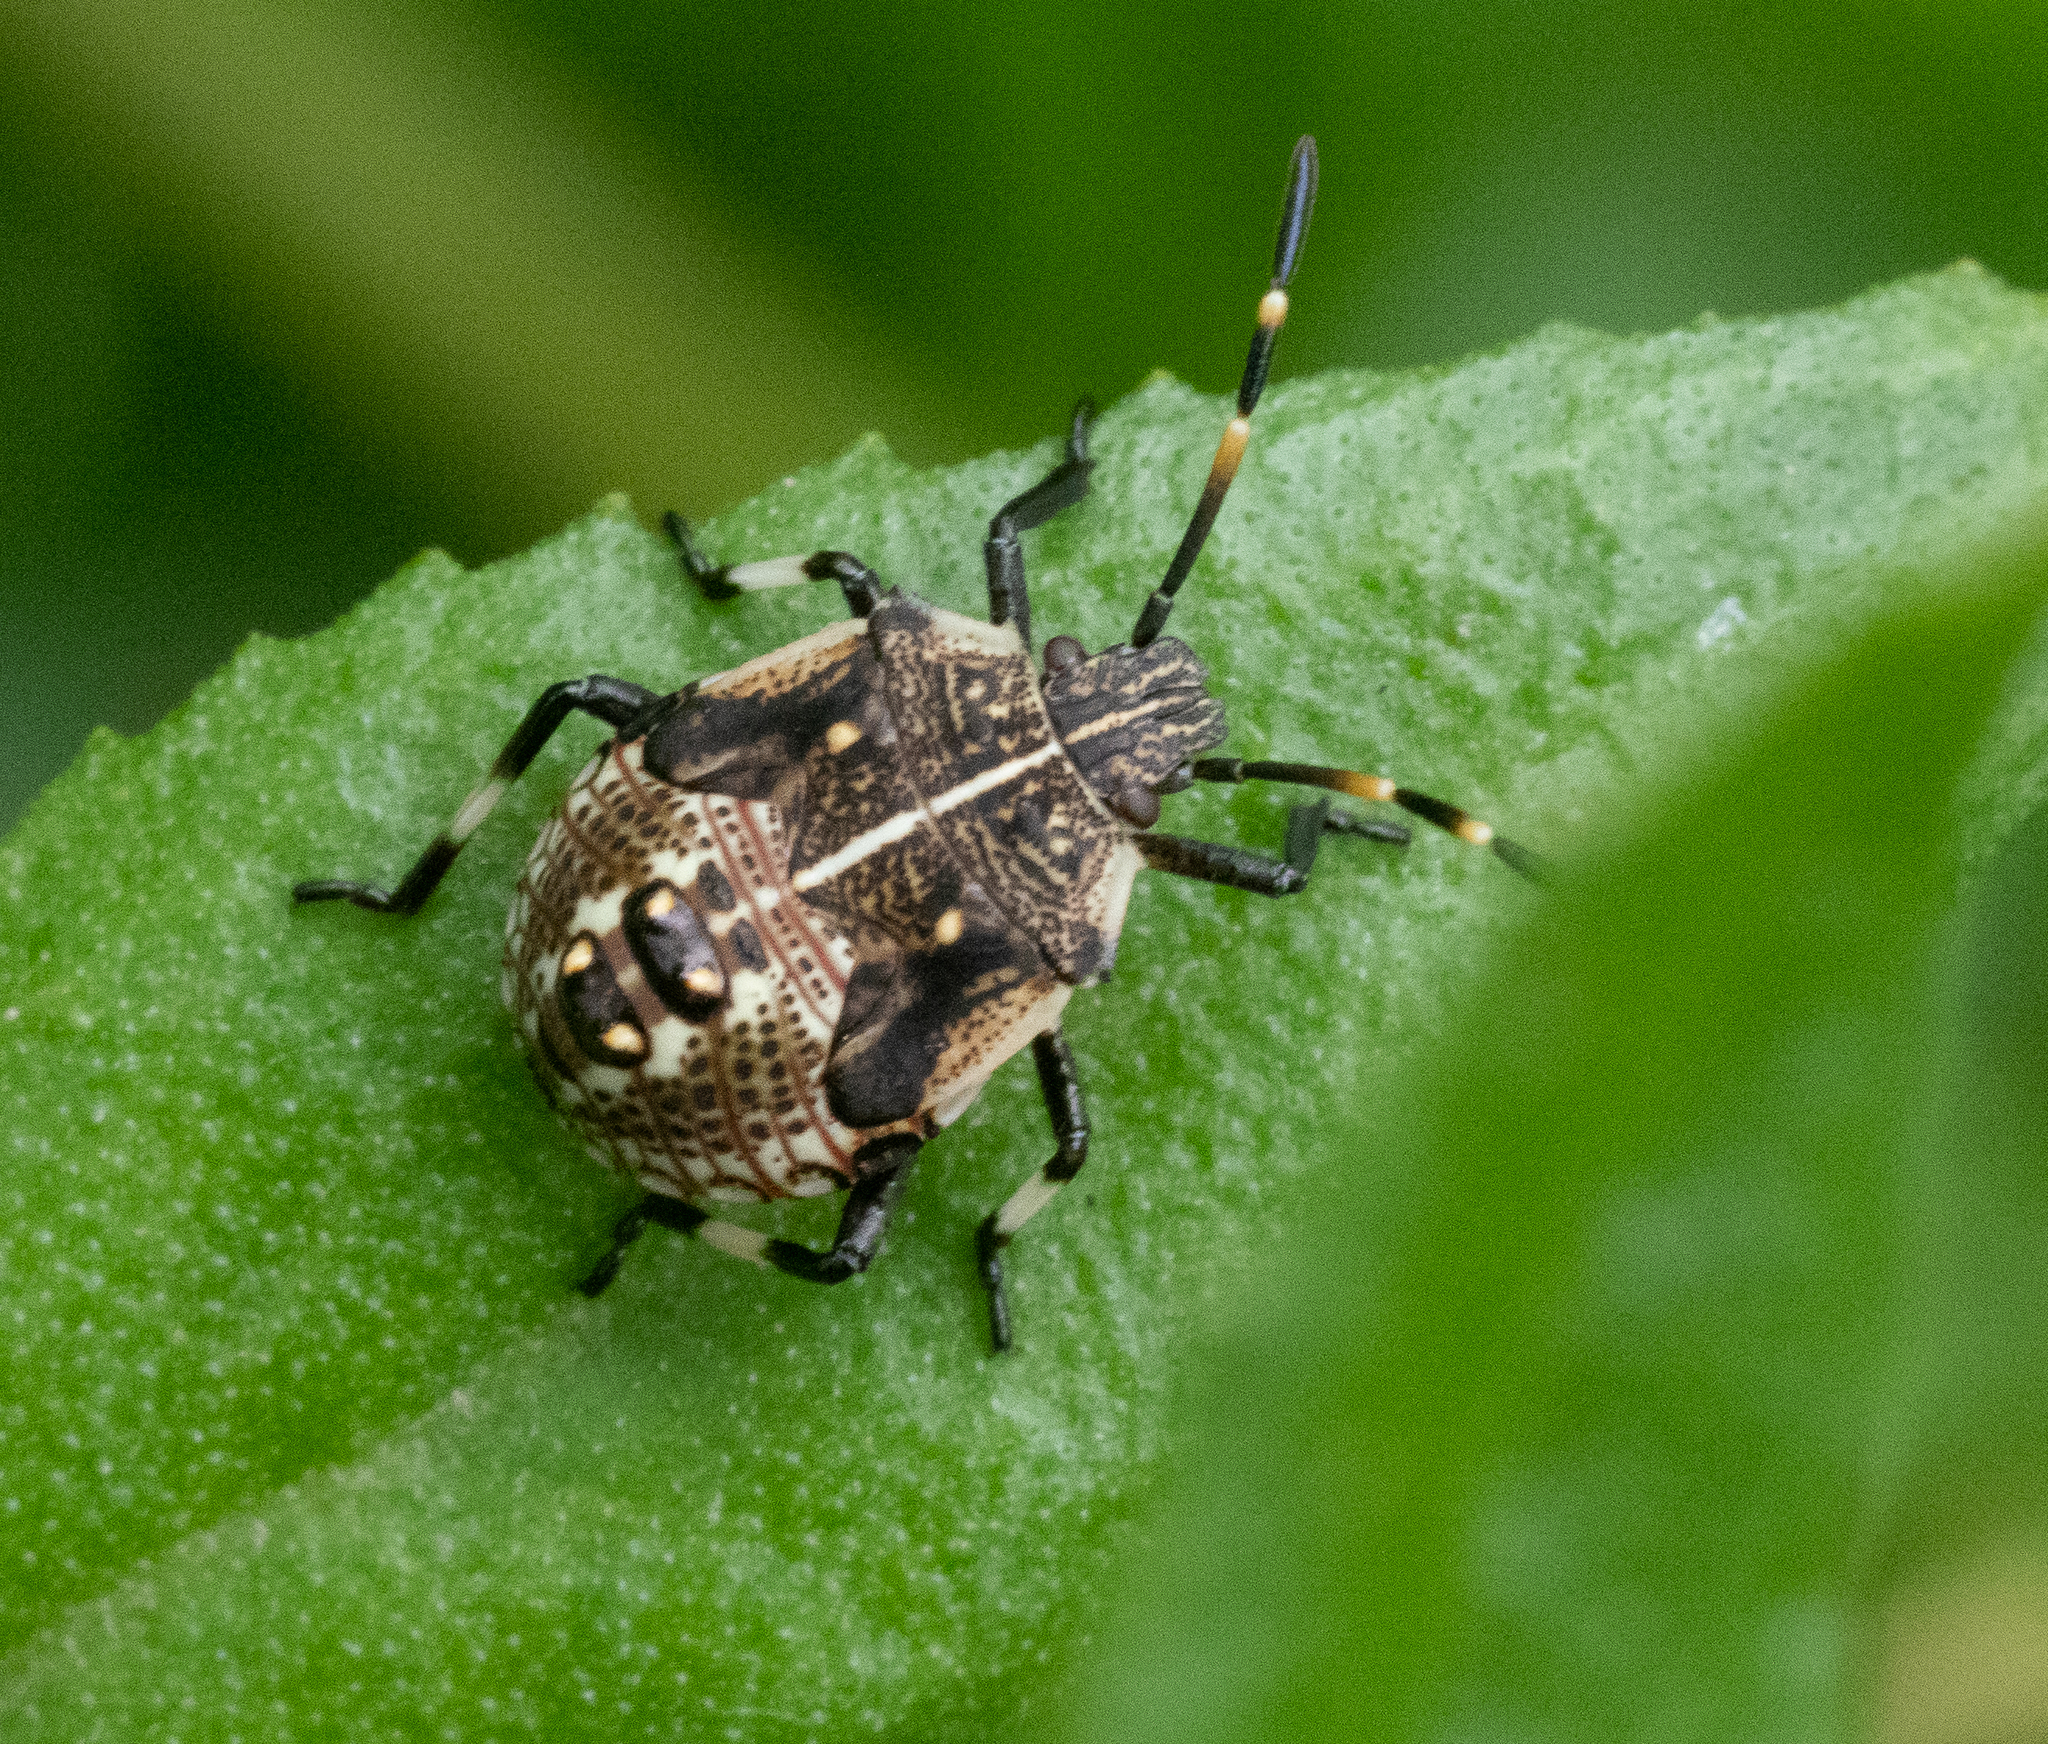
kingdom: Animalia
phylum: Arthropoda
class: Insecta
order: Hemiptera
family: Pentatomidae
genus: Oncocoris
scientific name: Oncocoris
